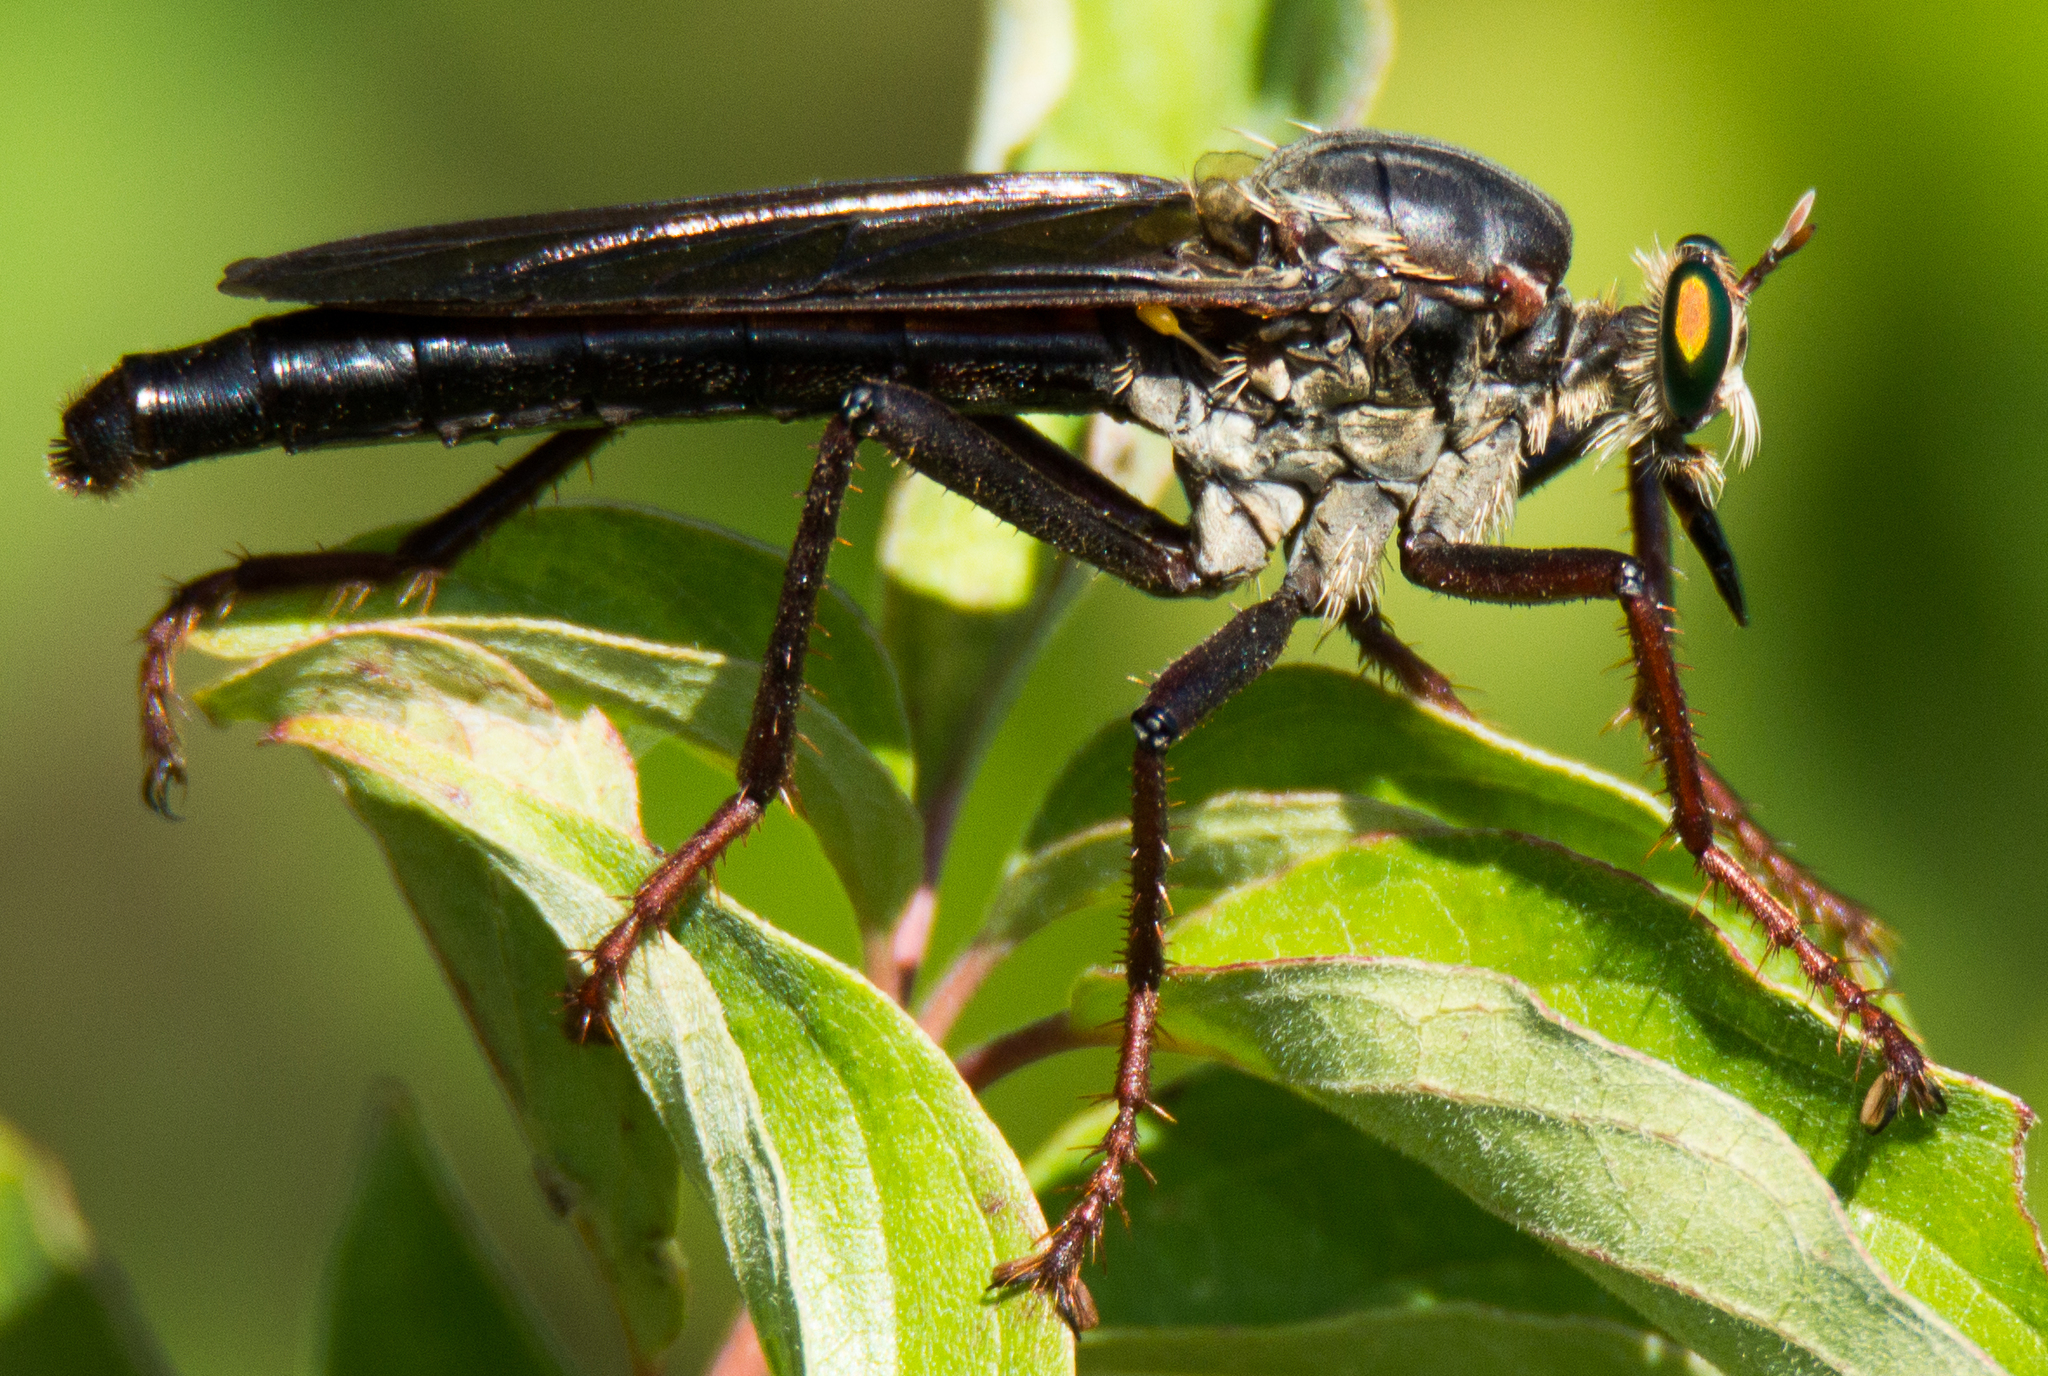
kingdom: Animalia
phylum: Arthropoda
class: Insecta
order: Diptera
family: Asilidae
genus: Microstylum
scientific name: Microstylum morosum
